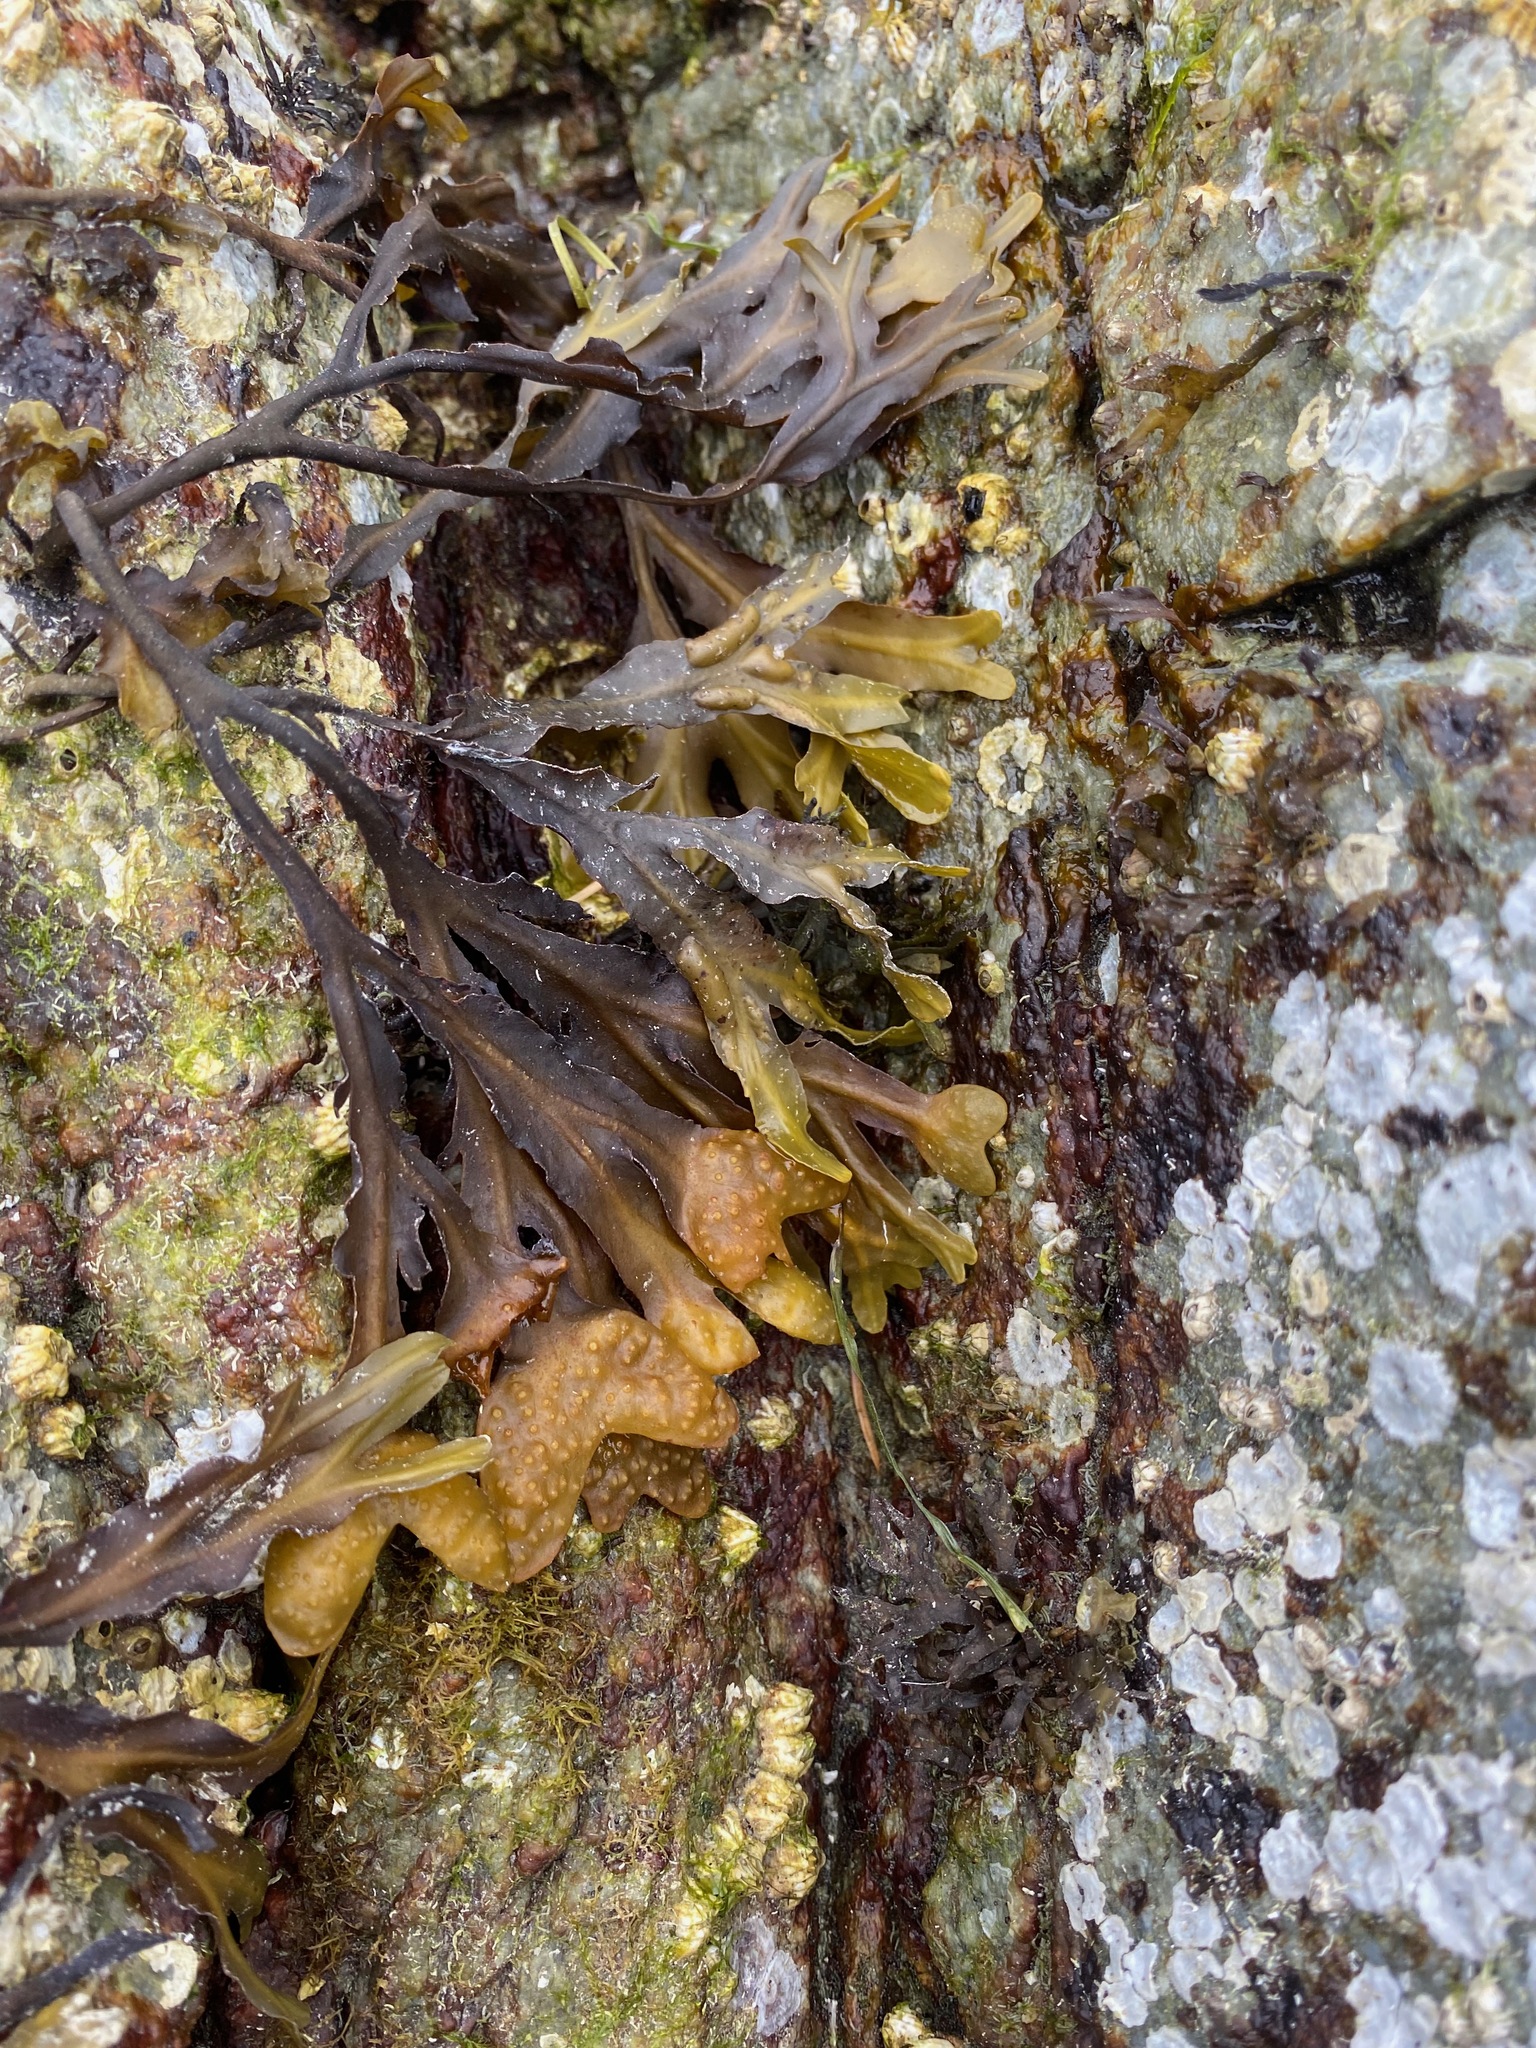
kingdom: Chromista
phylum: Ochrophyta
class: Phaeophyceae
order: Fucales
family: Fucaceae
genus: Fucus
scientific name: Fucus distichus
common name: Rockweed
